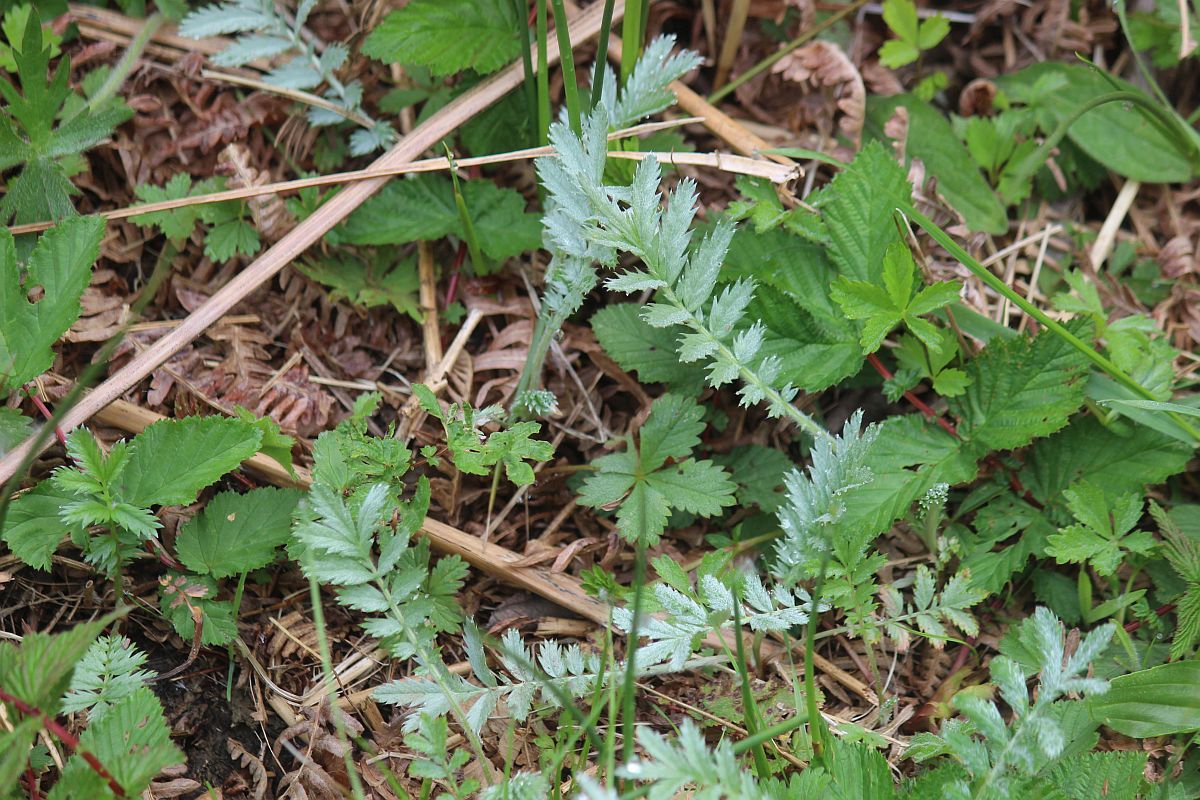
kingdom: Plantae
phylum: Tracheophyta
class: Magnoliopsida
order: Rosales
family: Rosaceae
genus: Argentina
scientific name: Argentina anserina
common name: Common silverweed
